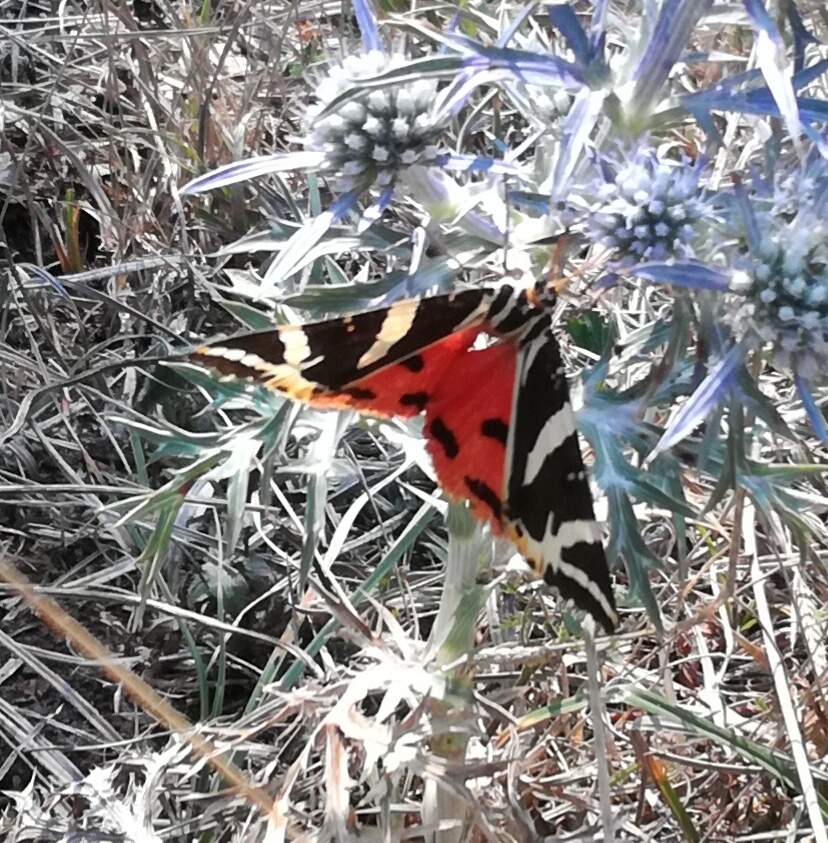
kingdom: Animalia
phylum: Arthropoda
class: Insecta
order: Lepidoptera
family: Erebidae
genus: Euplagia
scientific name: Euplagia quadripunctaria
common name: Jersey tiger
